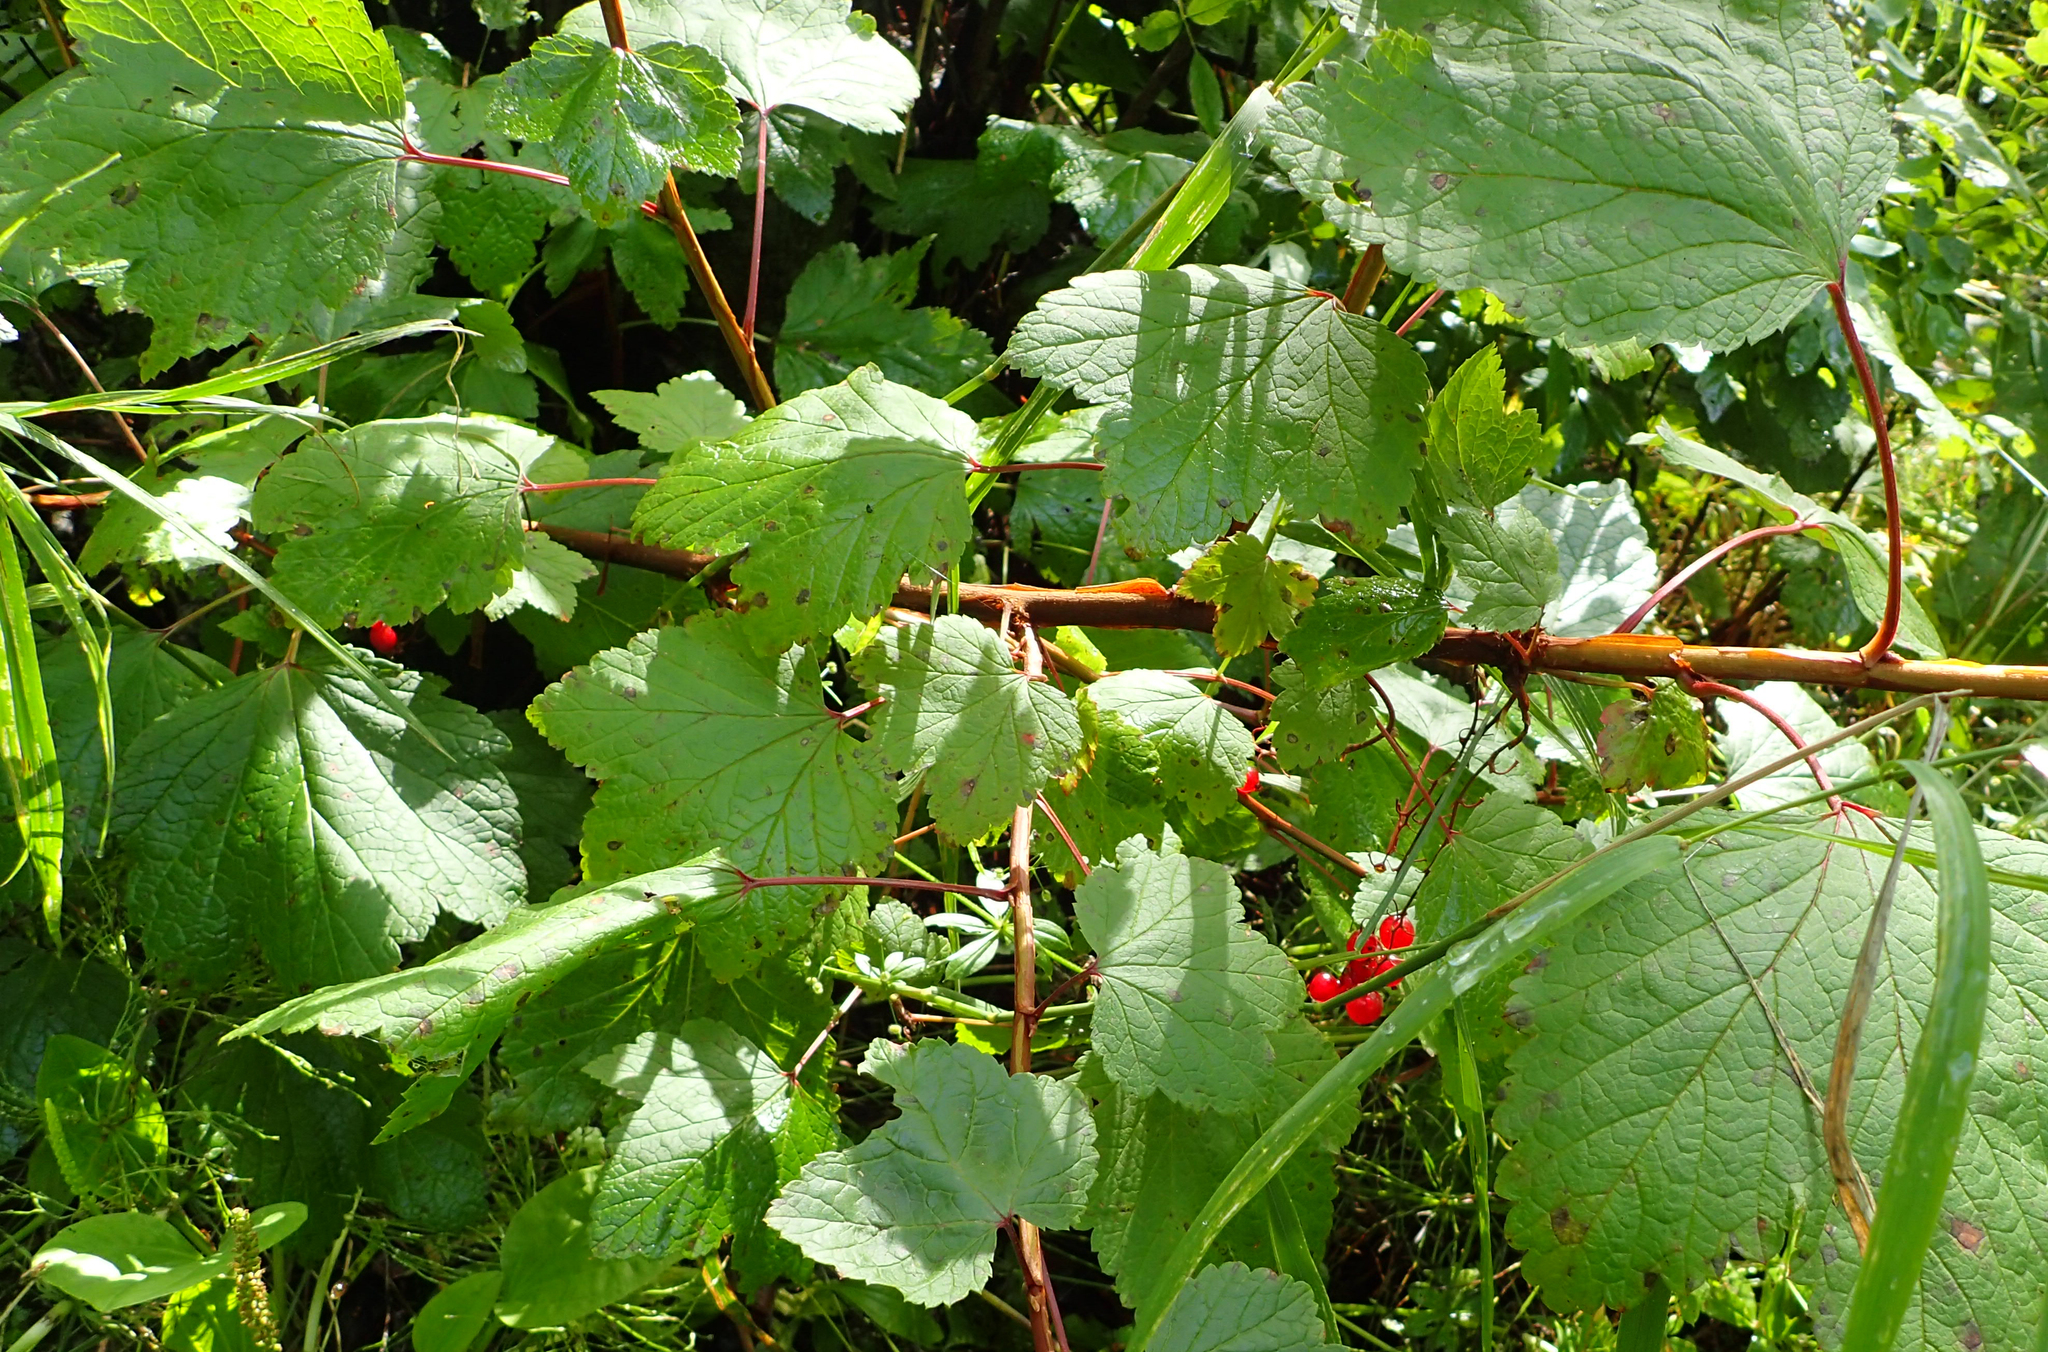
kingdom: Plantae
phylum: Tracheophyta
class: Magnoliopsida
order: Dipsacales
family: Viburnaceae
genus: Viburnum
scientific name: Viburnum edule
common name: Mooseberry
